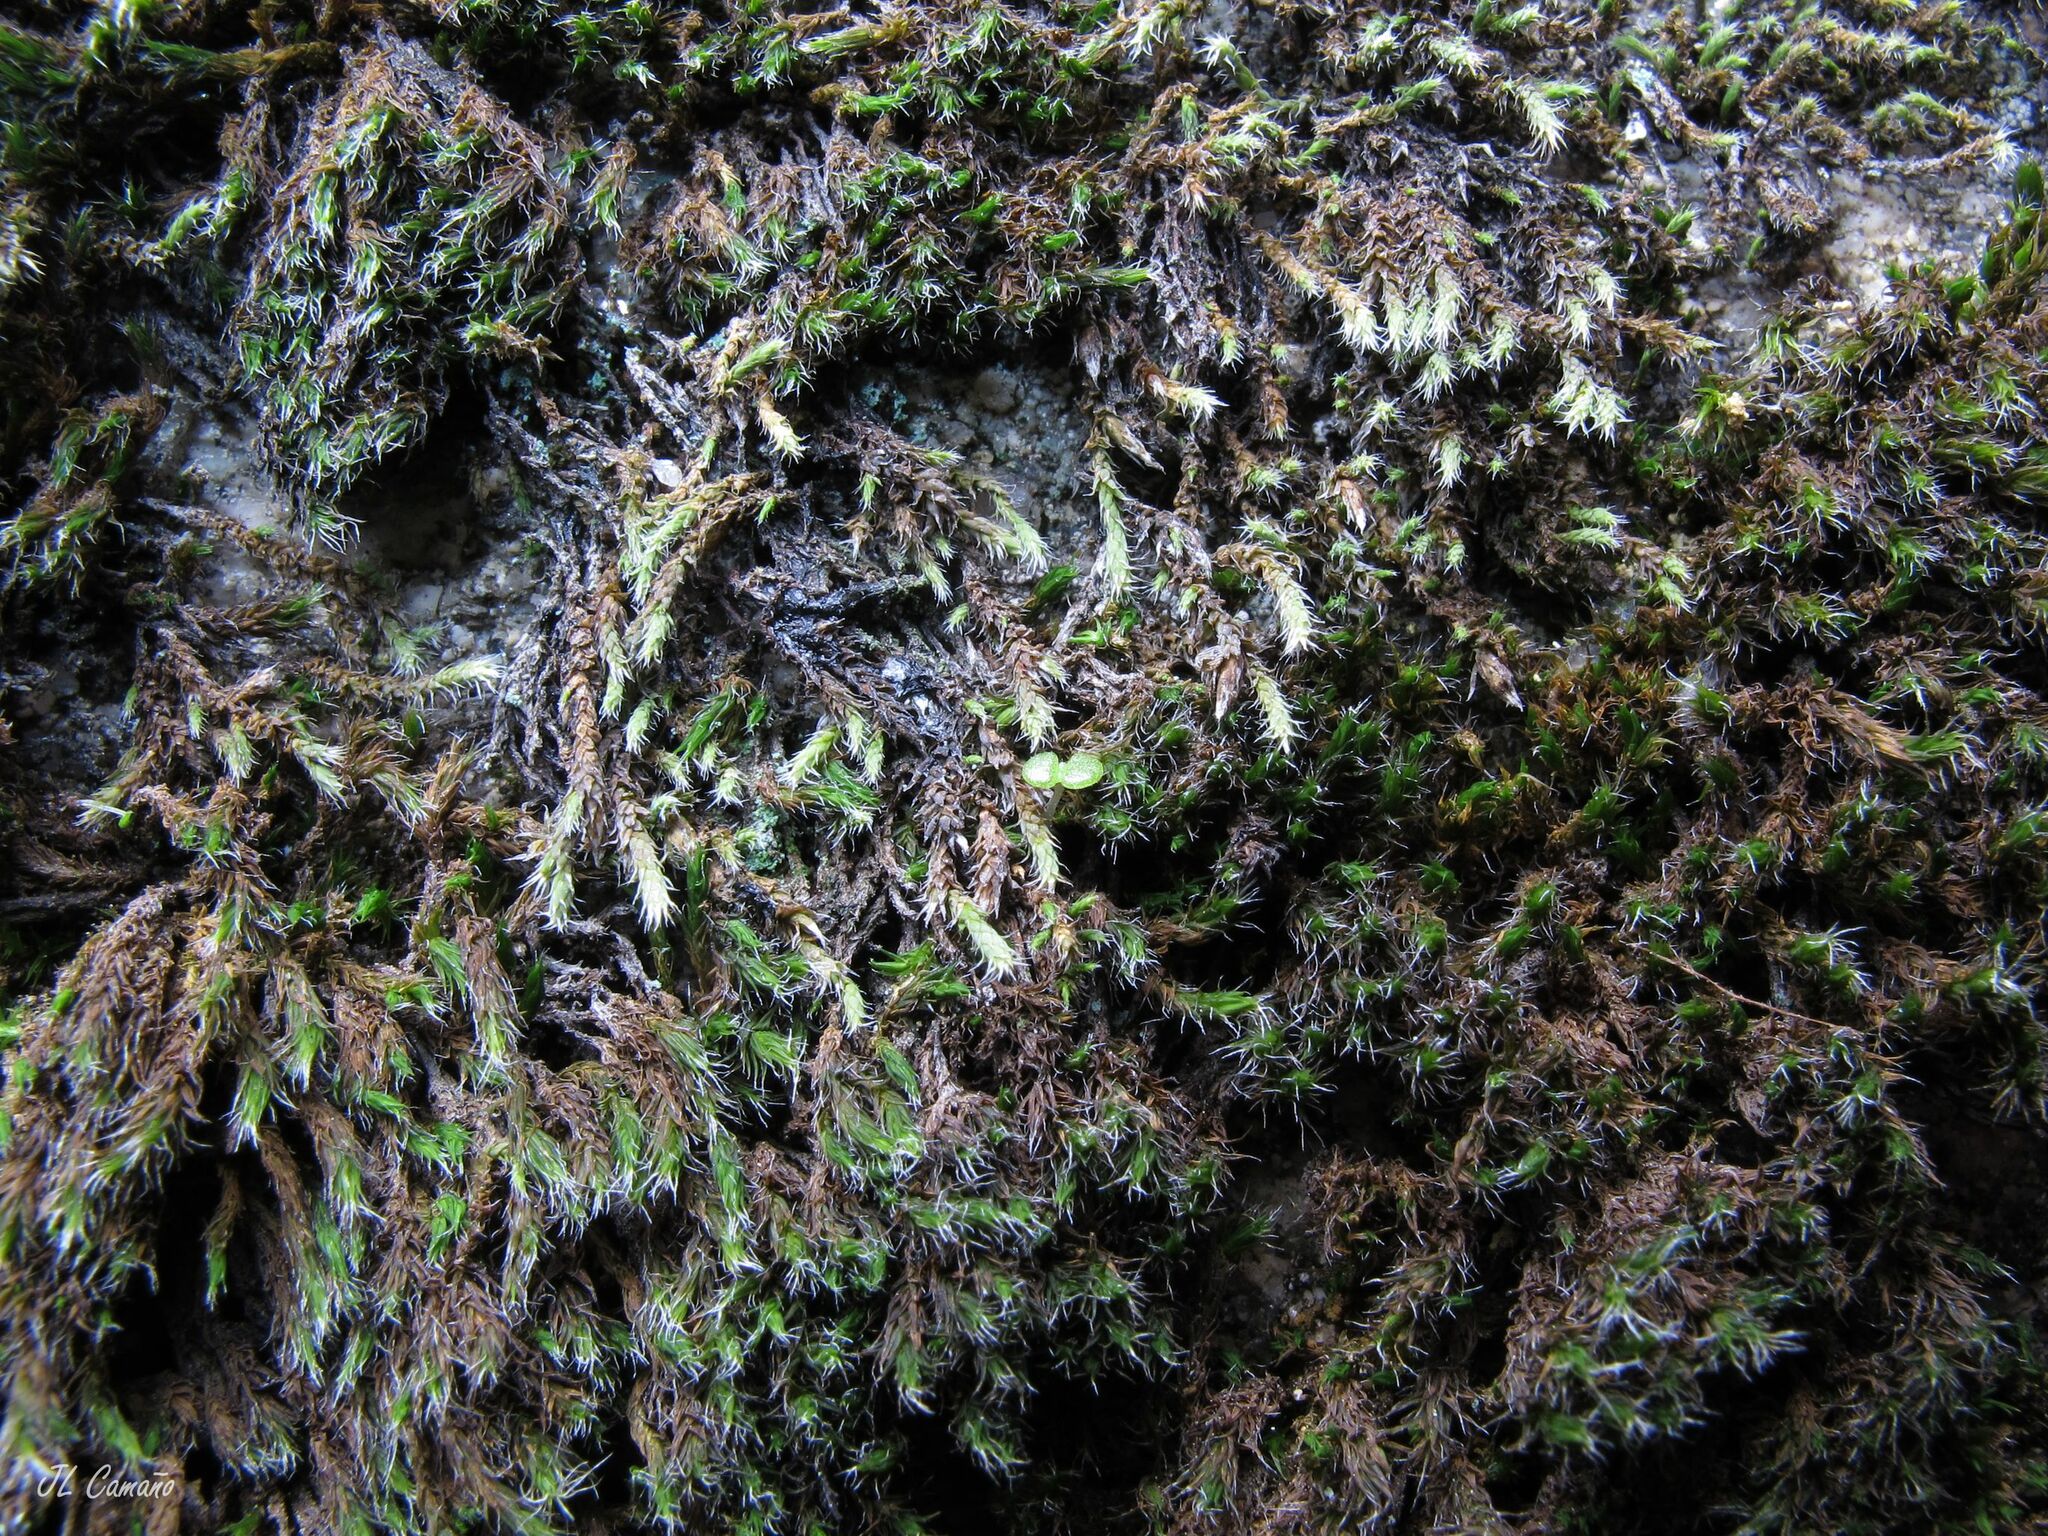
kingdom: Plantae
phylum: Bryophyta
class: Bryopsida
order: Hedwigiales
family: Hedwigiaceae
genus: Hedwigia
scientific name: Hedwigia stellata
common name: Starry hoar-moss
